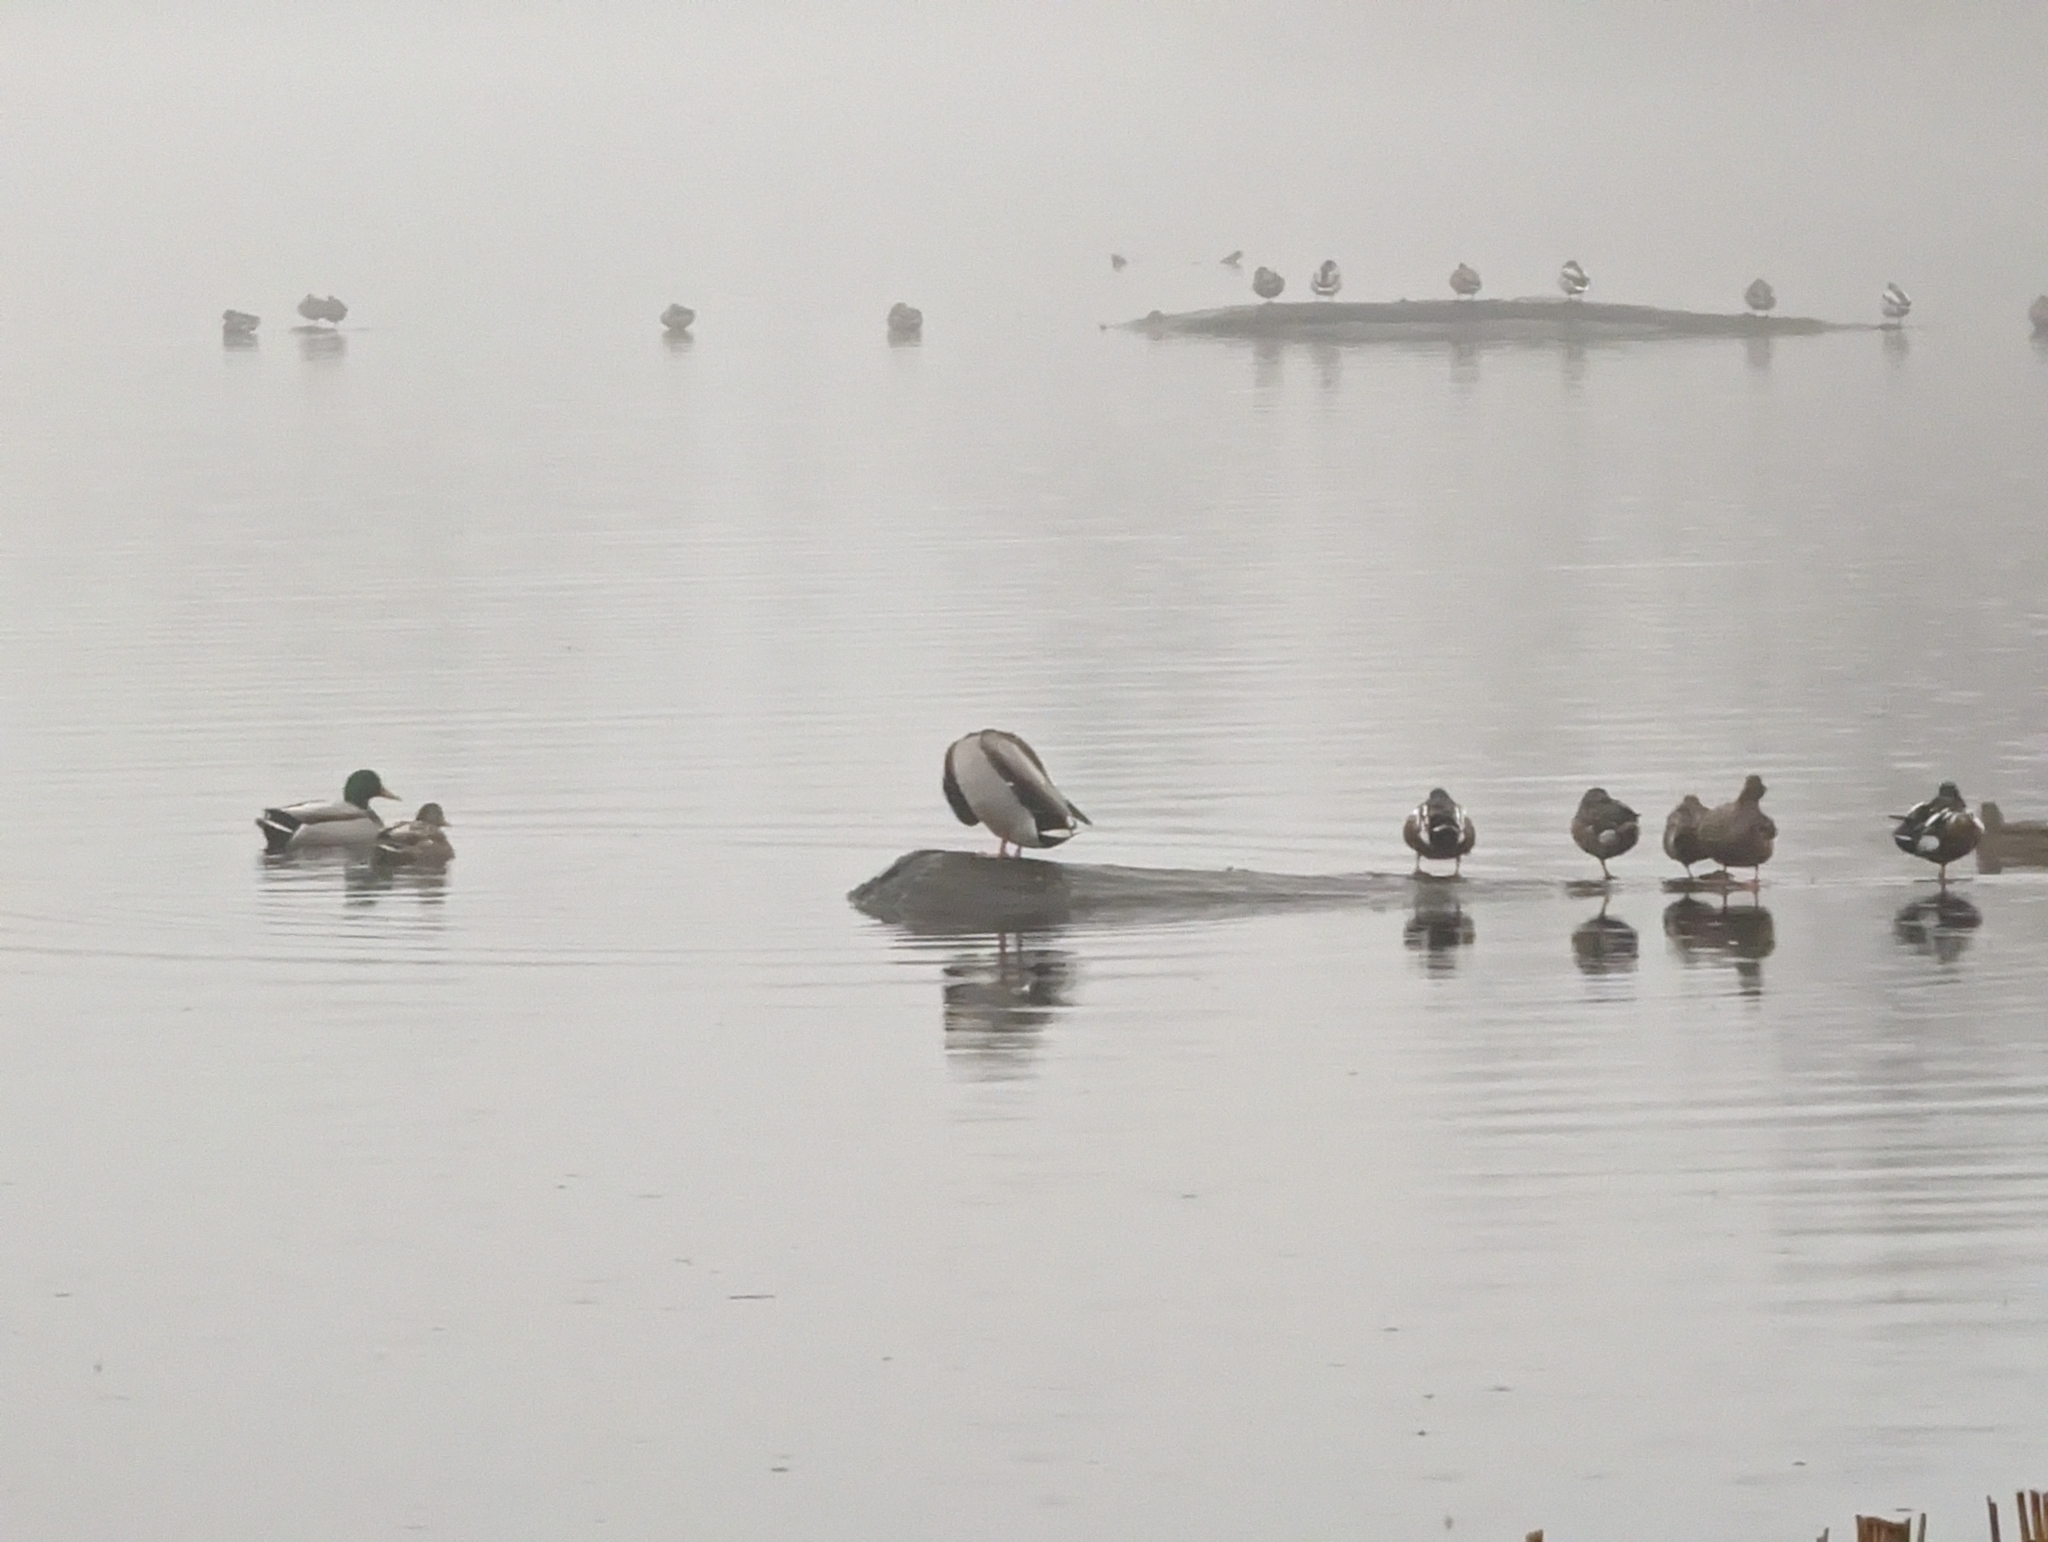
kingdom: Animalia
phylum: Chordata
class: Aves
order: Anseriformes
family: Anatidae
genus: Anas
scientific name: Anas platyrhynchos
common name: Mallard
